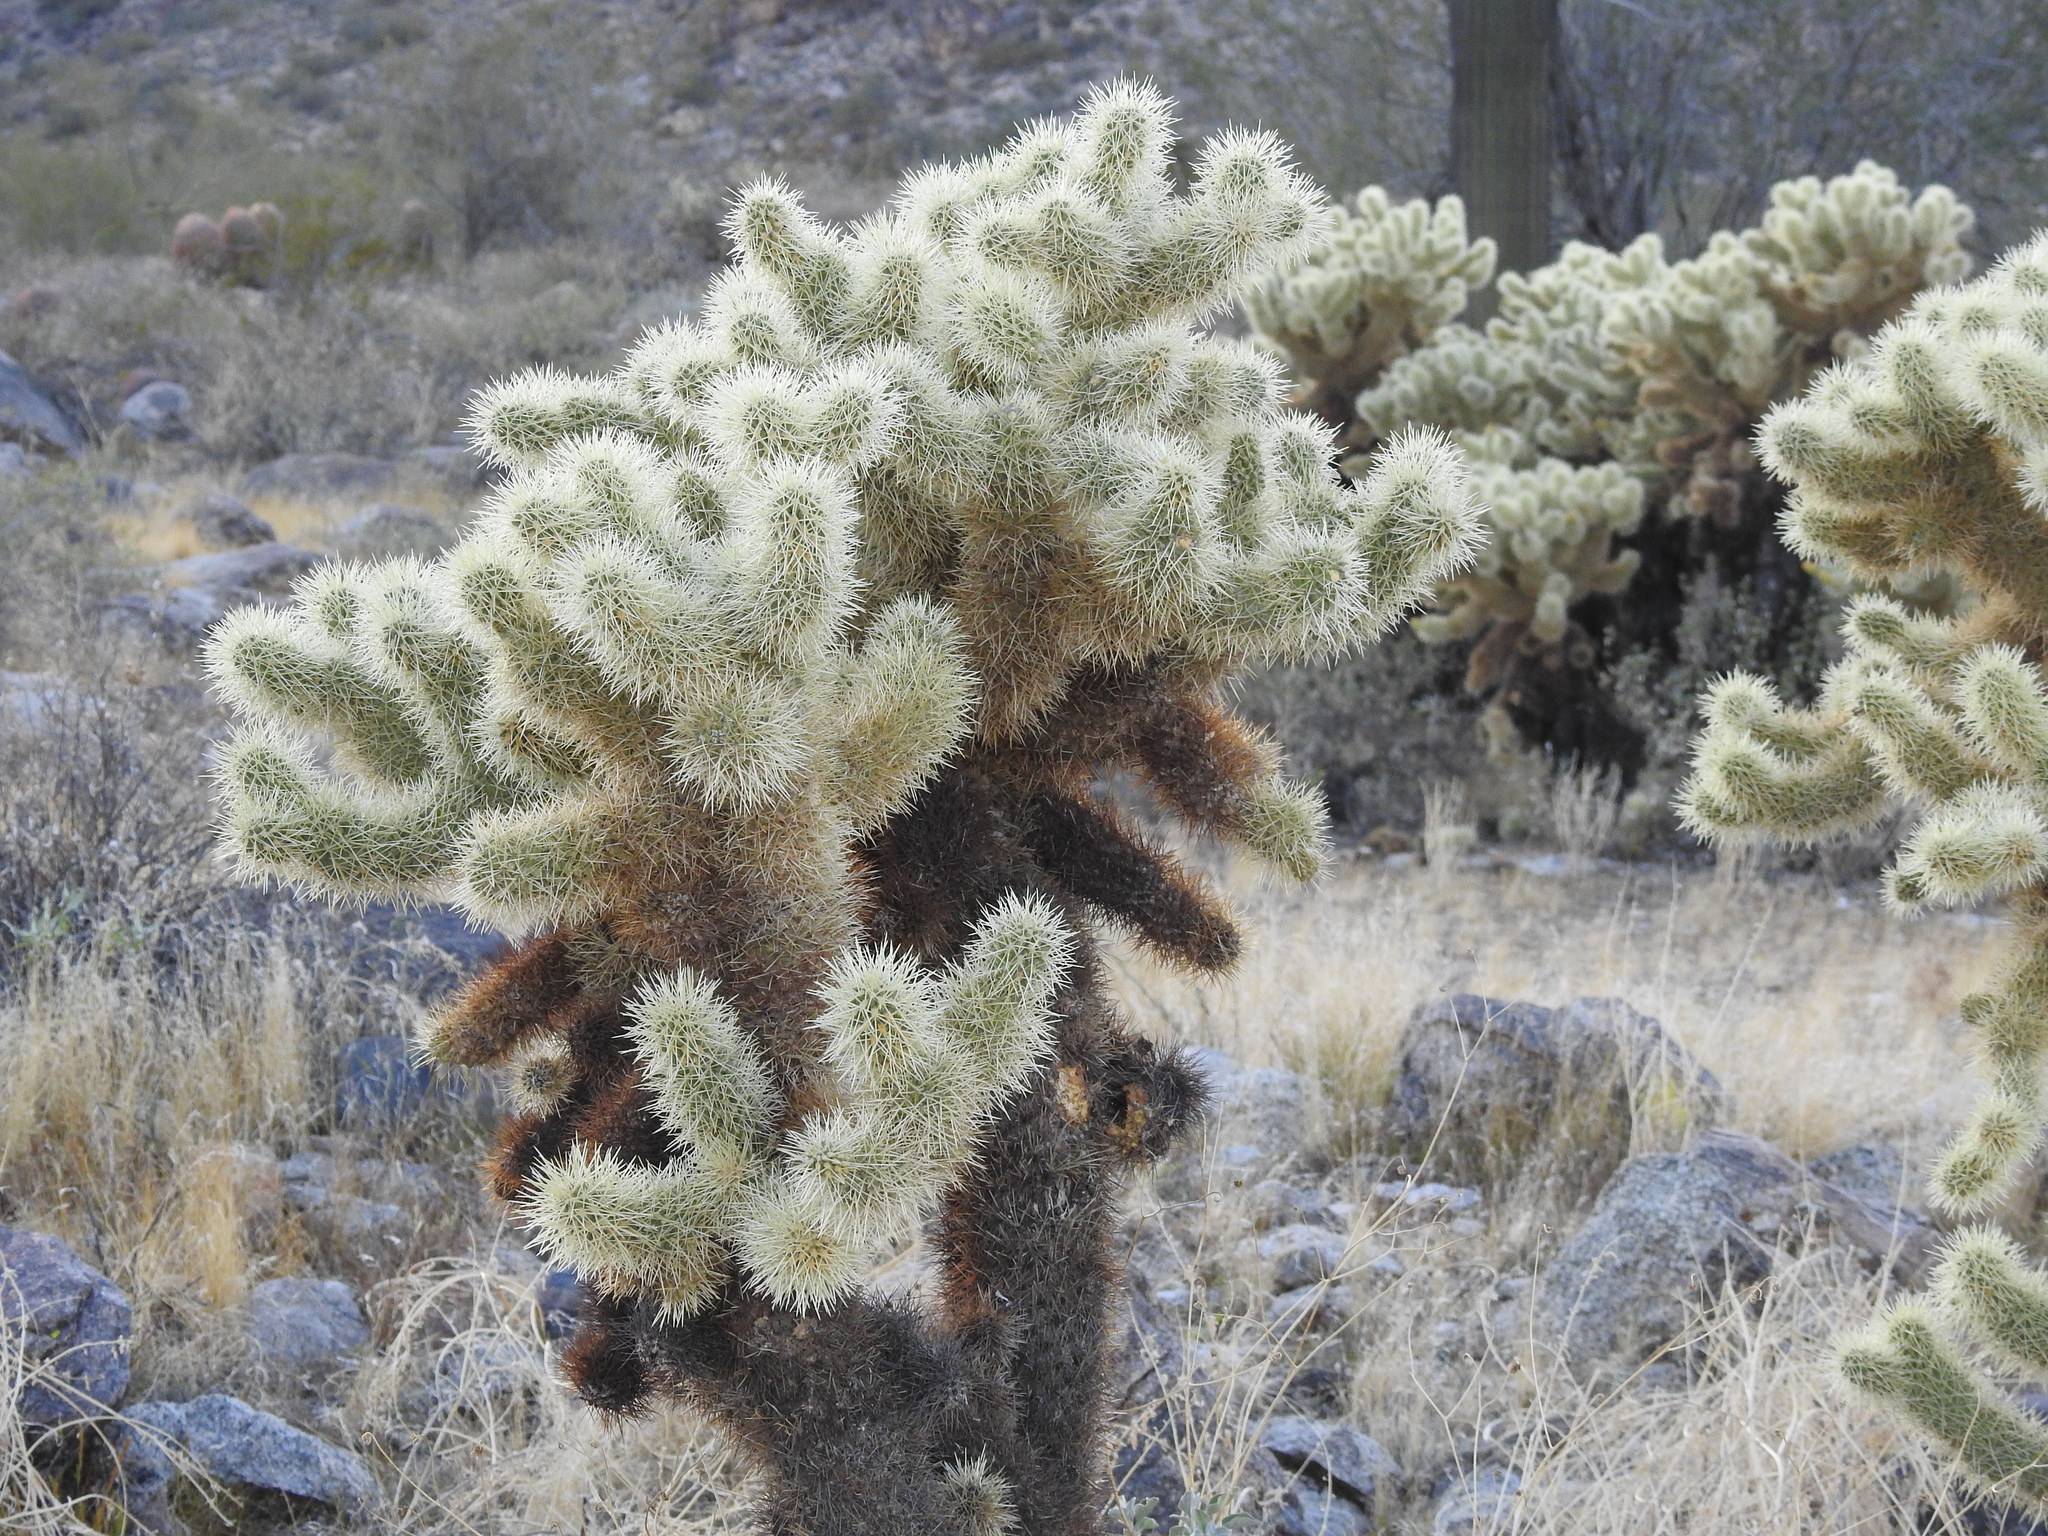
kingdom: Plantae
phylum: Tracheophyta
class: Magnoliopsida
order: Caryophyllales
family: Cactaceae
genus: Cylindropuntia
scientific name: Cylindropuntia fosbergii
